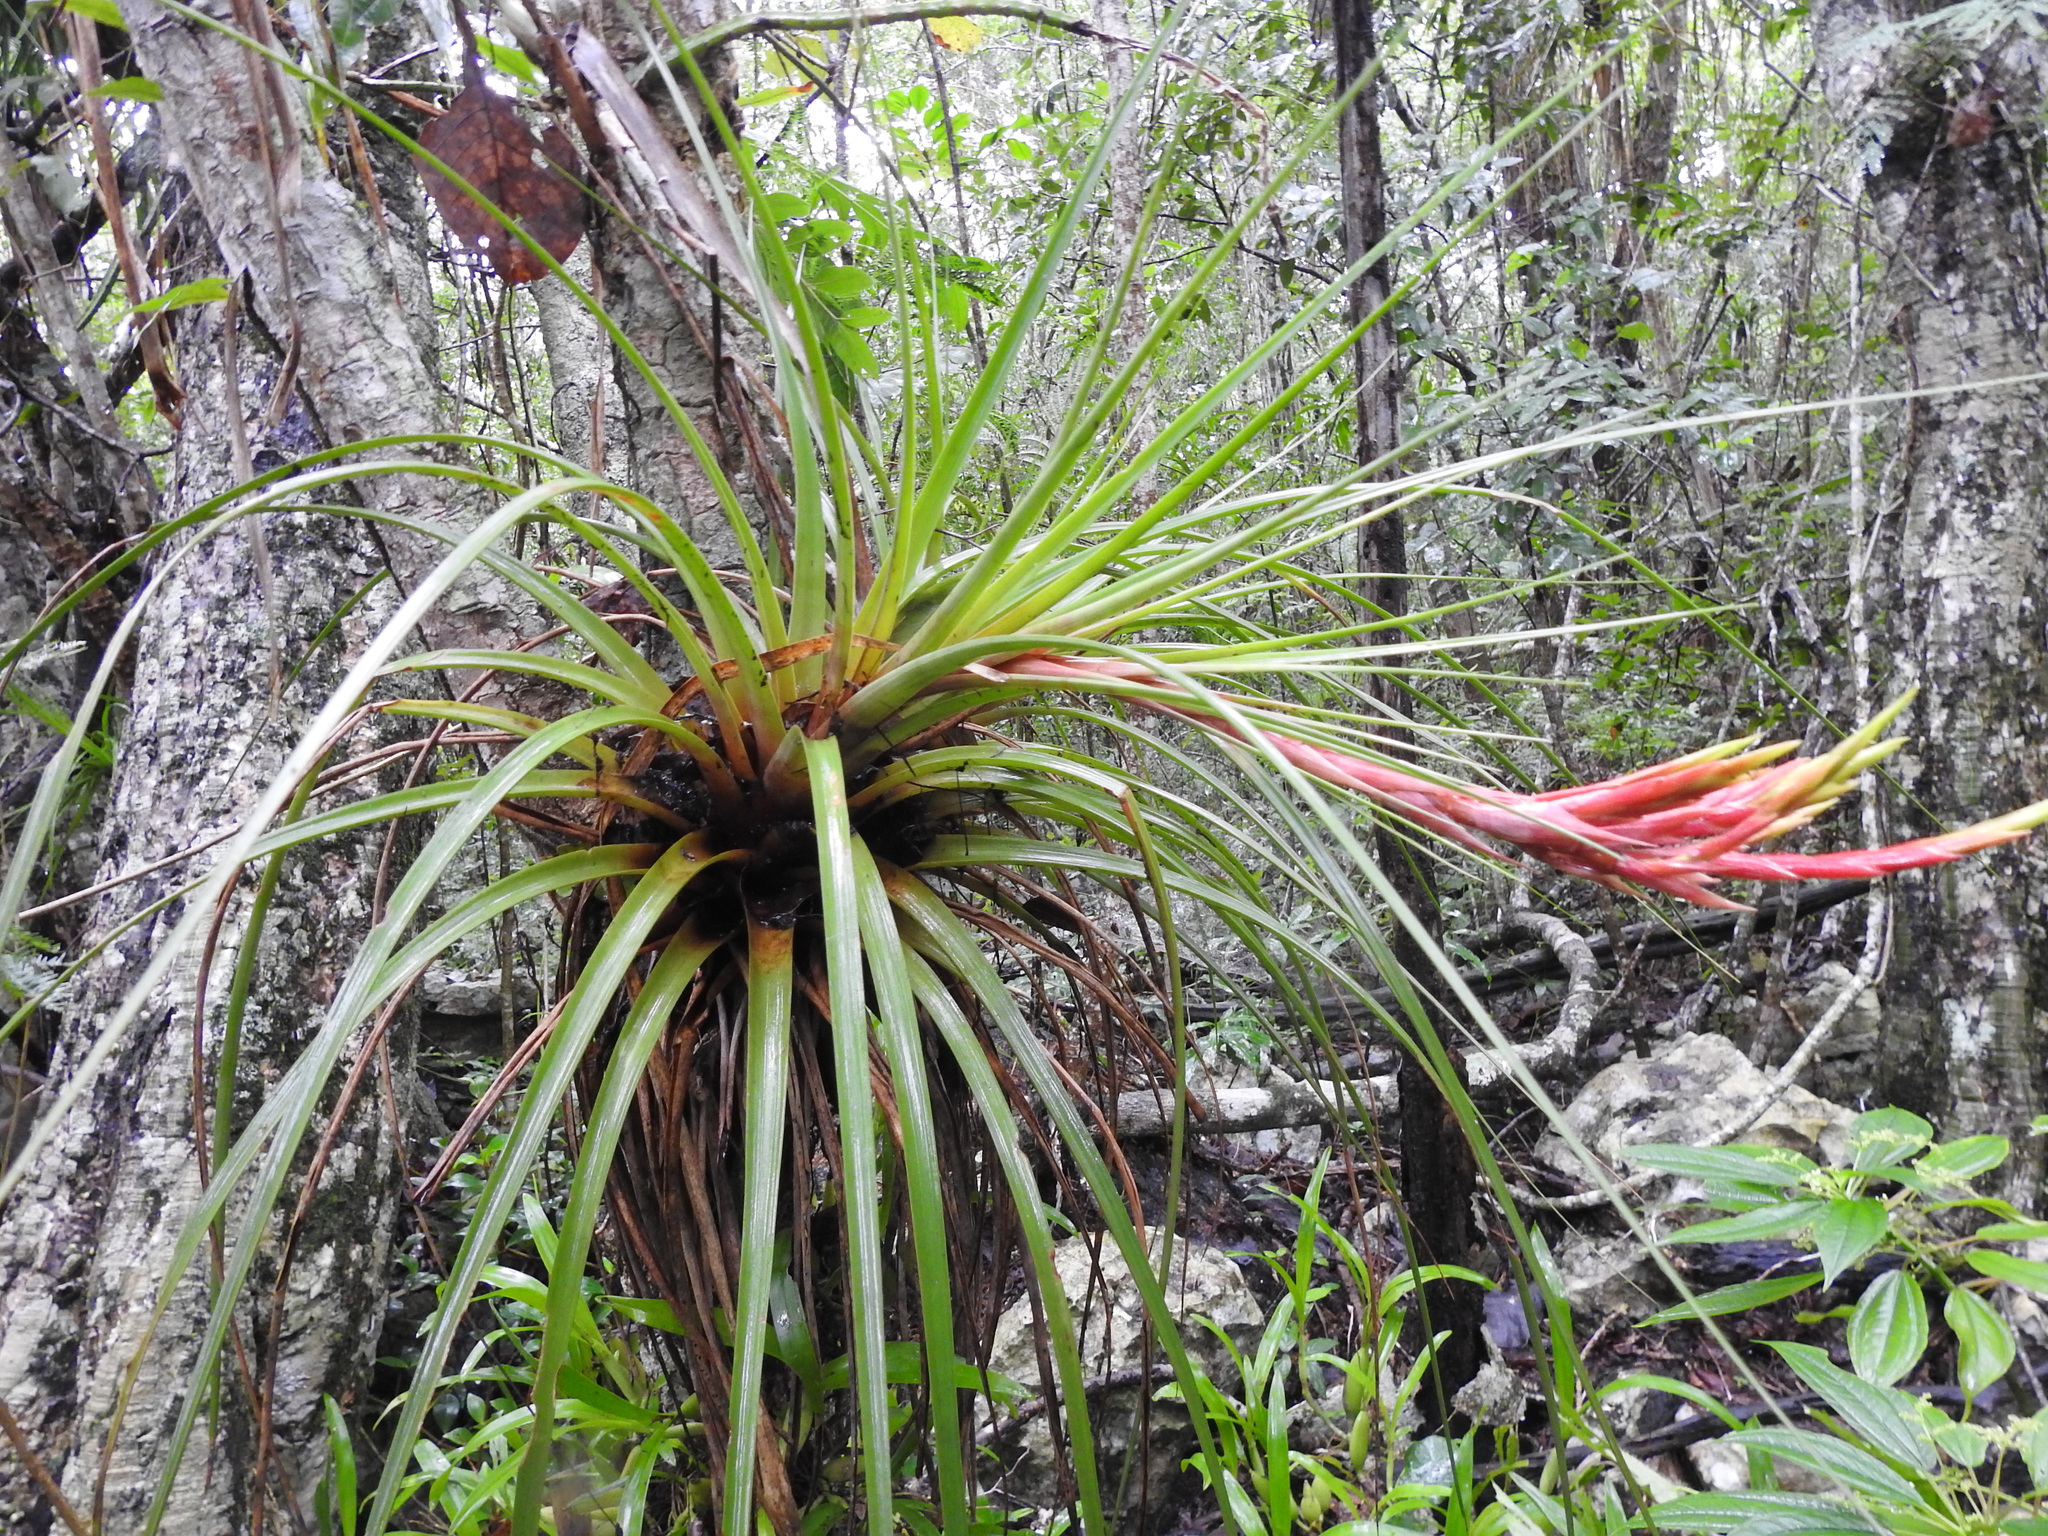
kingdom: Plantae
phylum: Tracheophyta
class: Liliopsida
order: Poales
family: Bromeliaceae
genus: Tillandsia
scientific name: Tillandsia inopinata
